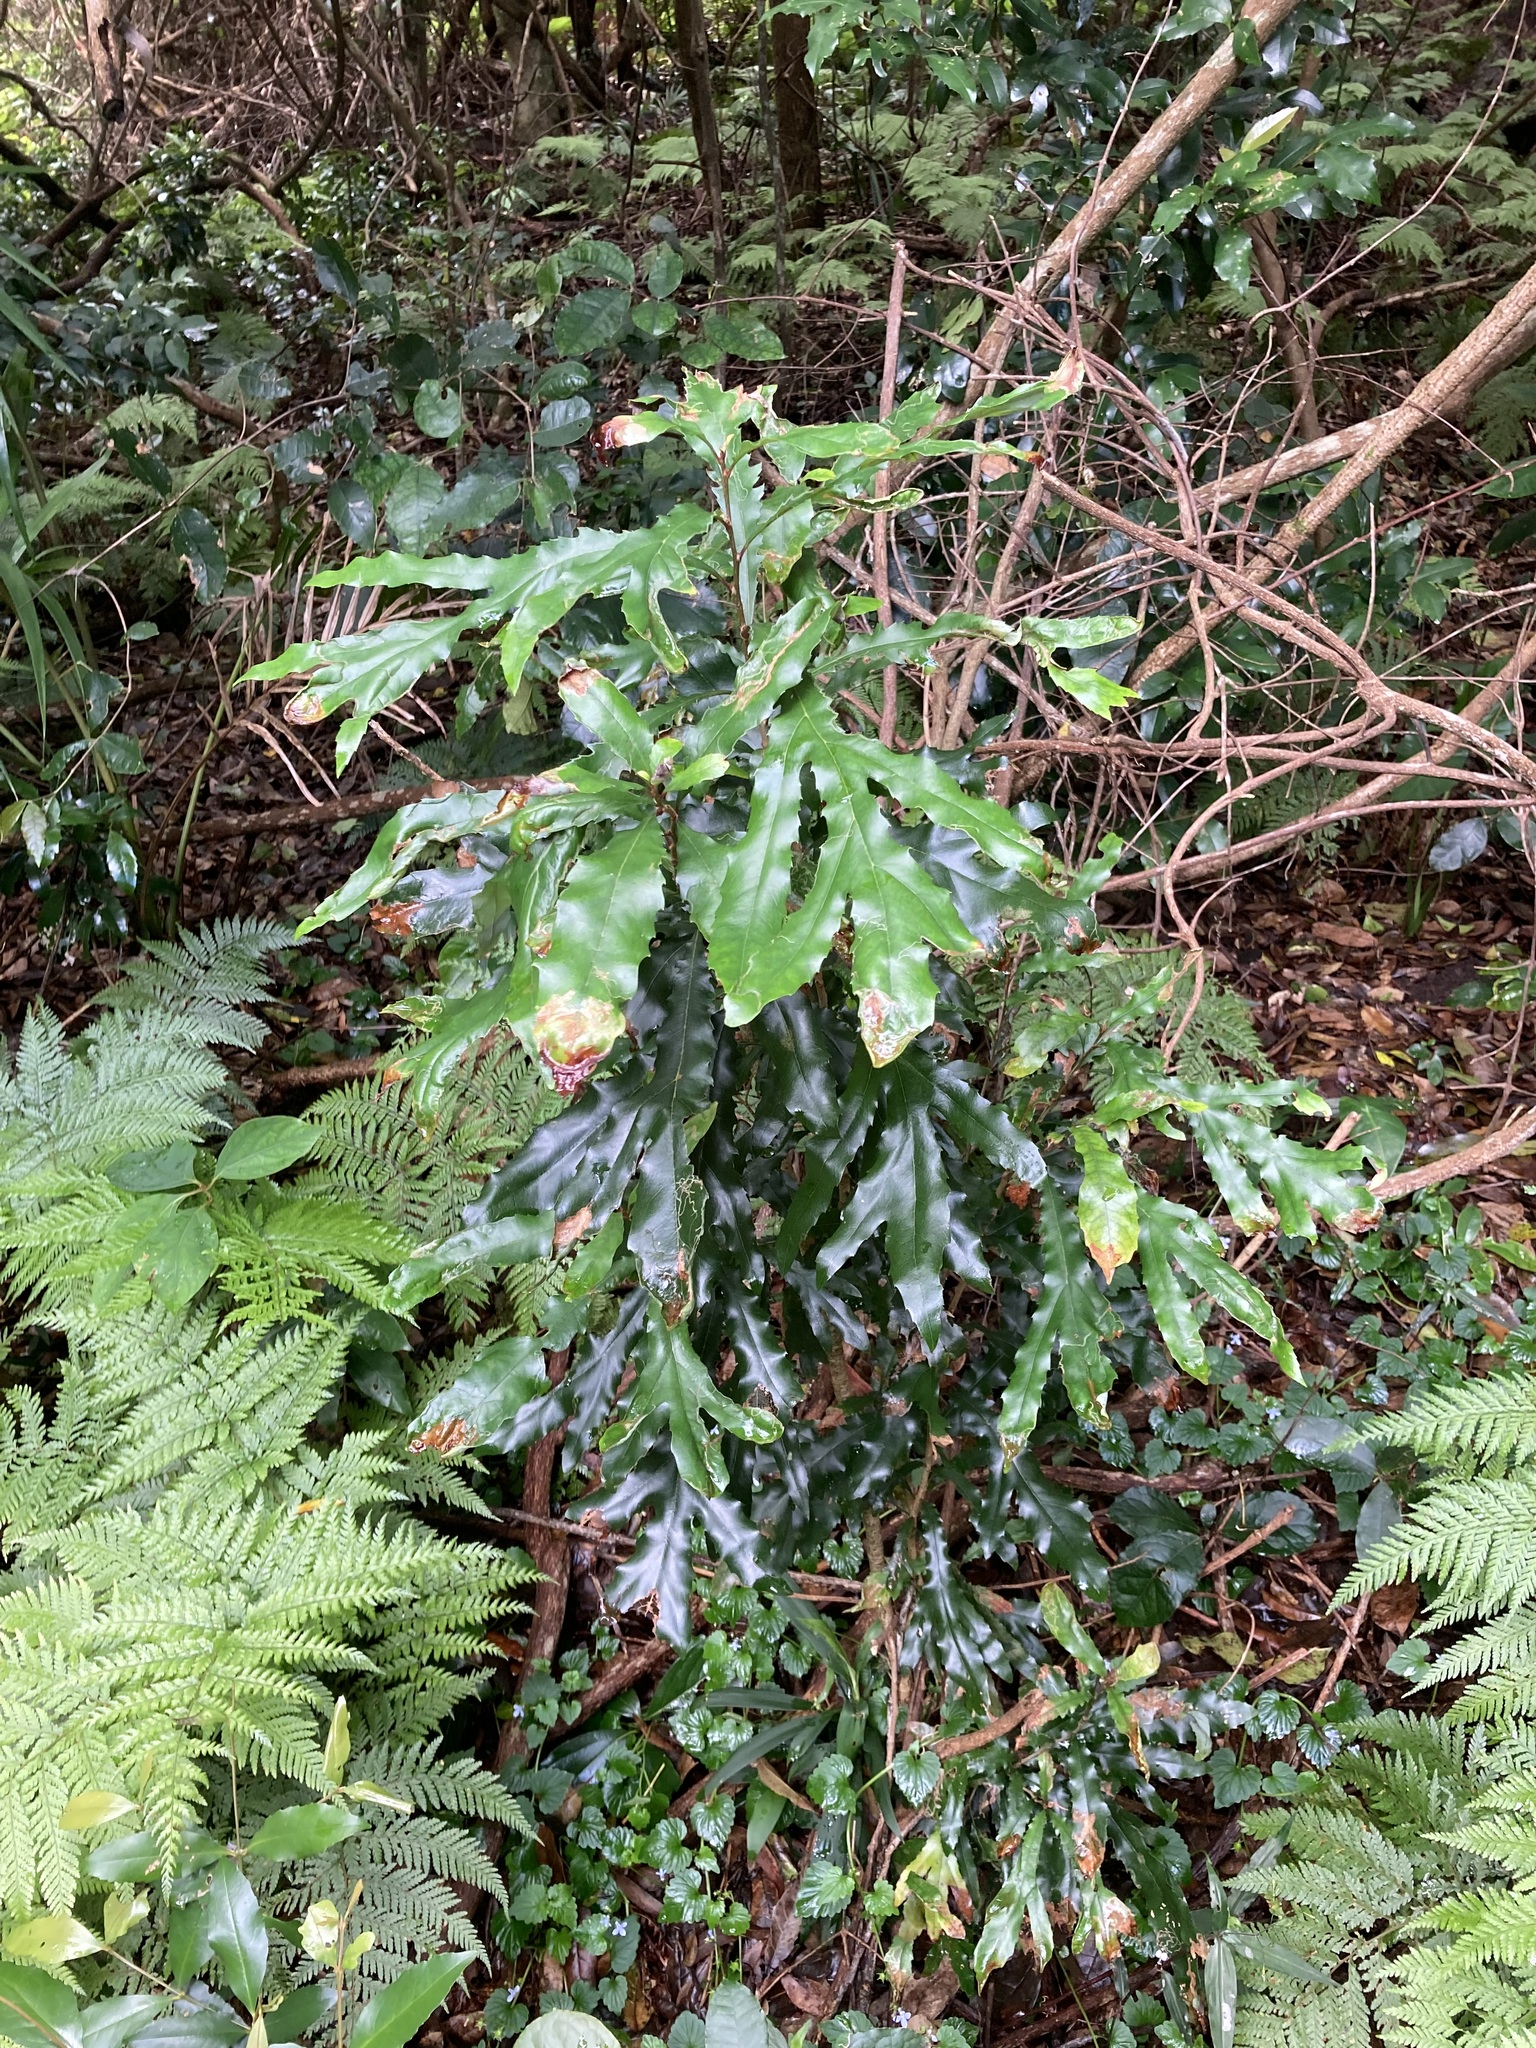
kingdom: Plantae
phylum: Tracheophyta
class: Magnoliopsida
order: Proteales
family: Proteaceae
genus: Orites
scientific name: Orites excelsus
